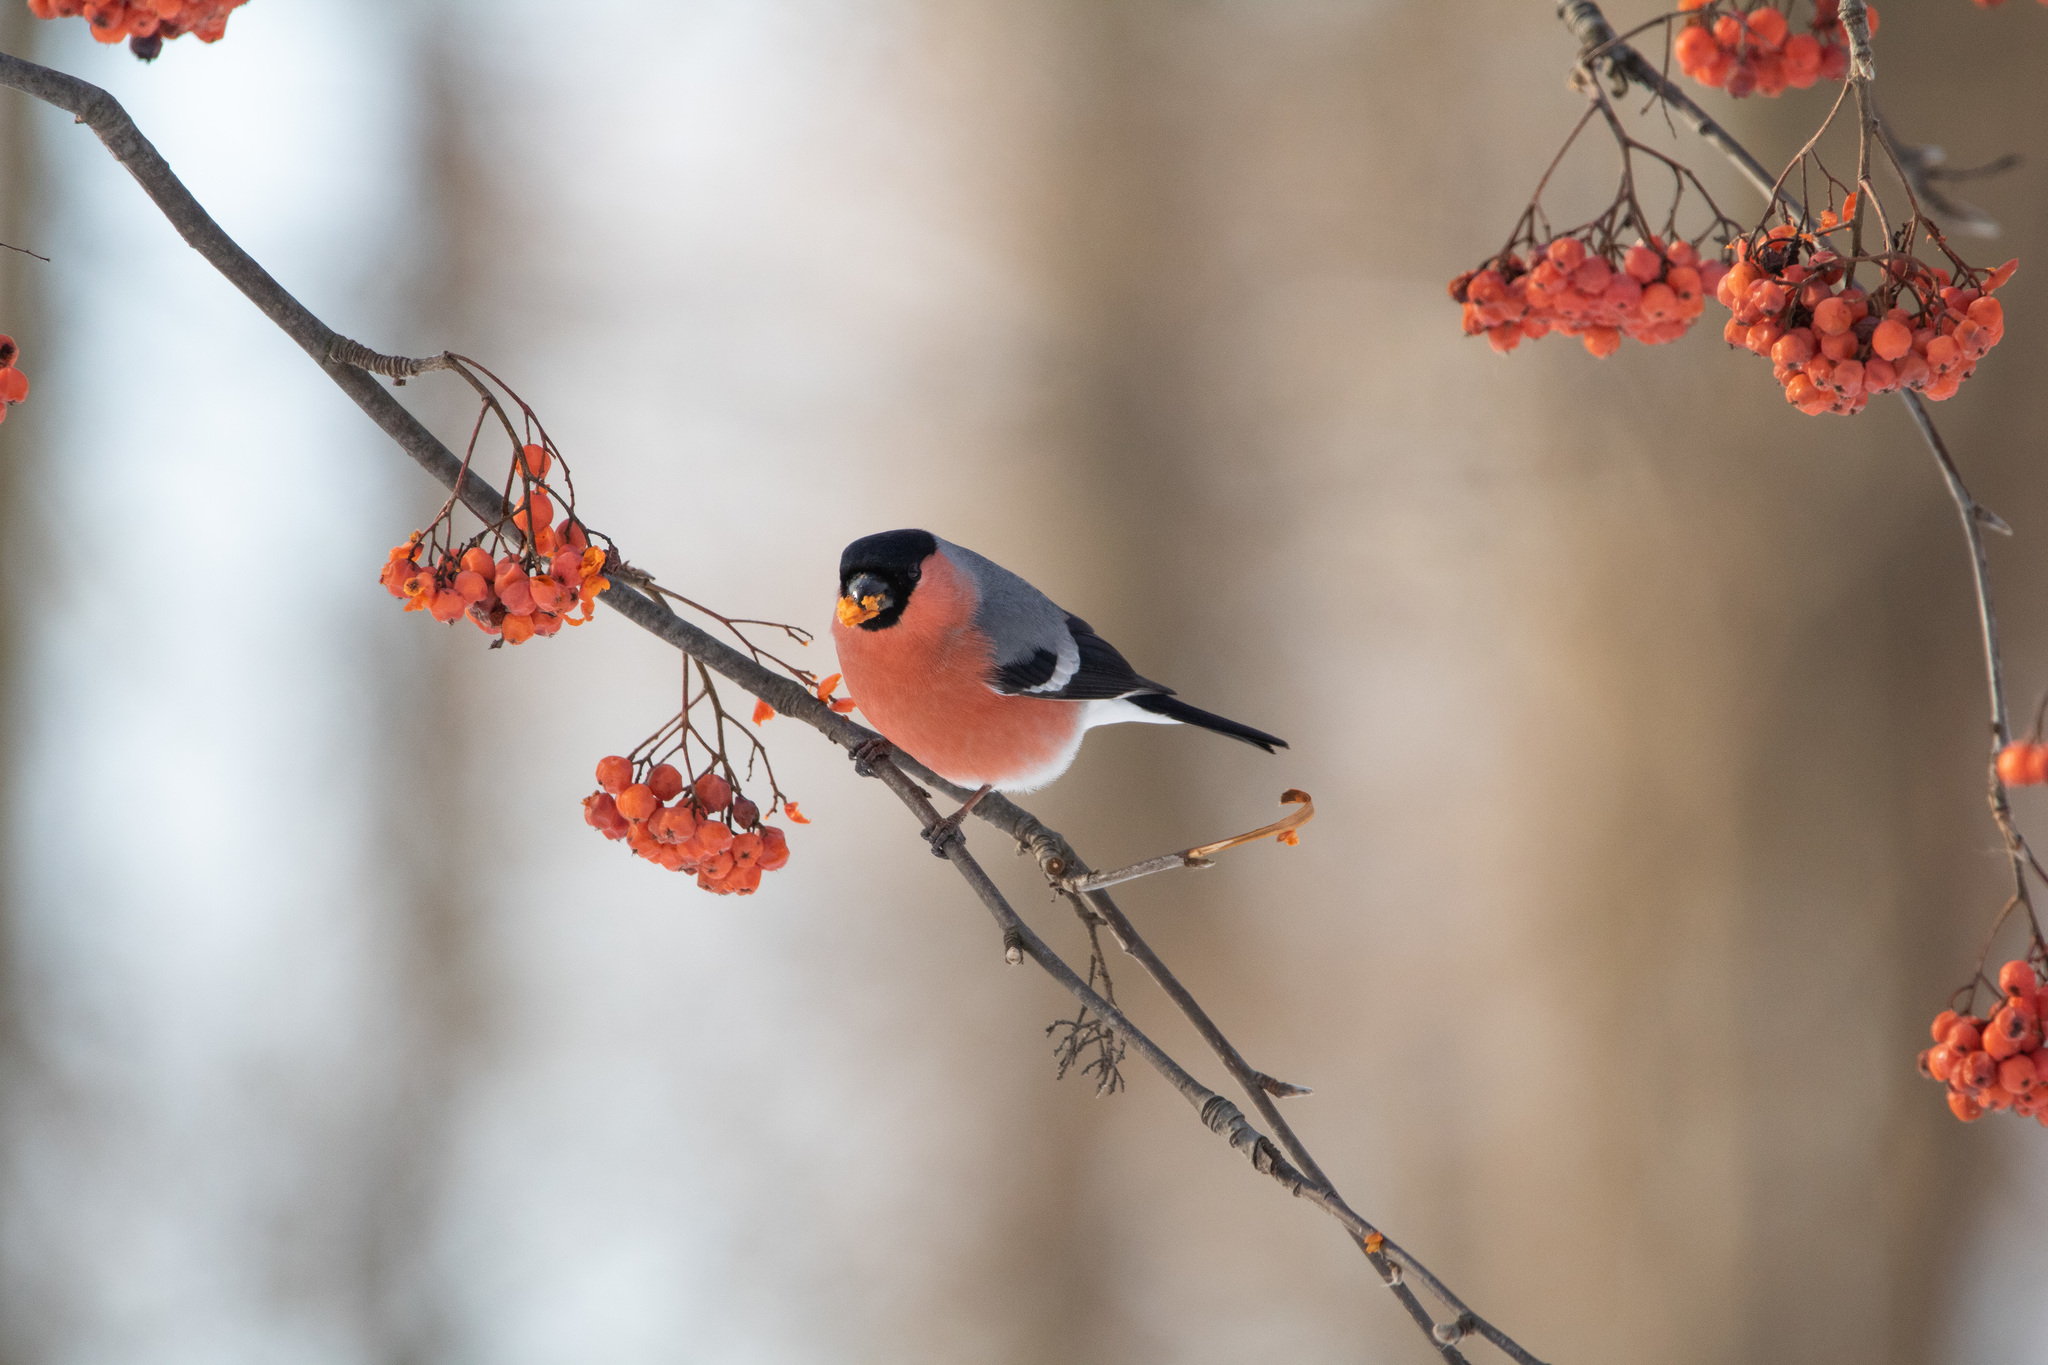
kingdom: Animalia
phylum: Chordata
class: Aves
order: Passeriformes
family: Fringillidae
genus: Pyrrhula
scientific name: Pyrrhula pyrrhula
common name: Eurasian bullfinch
